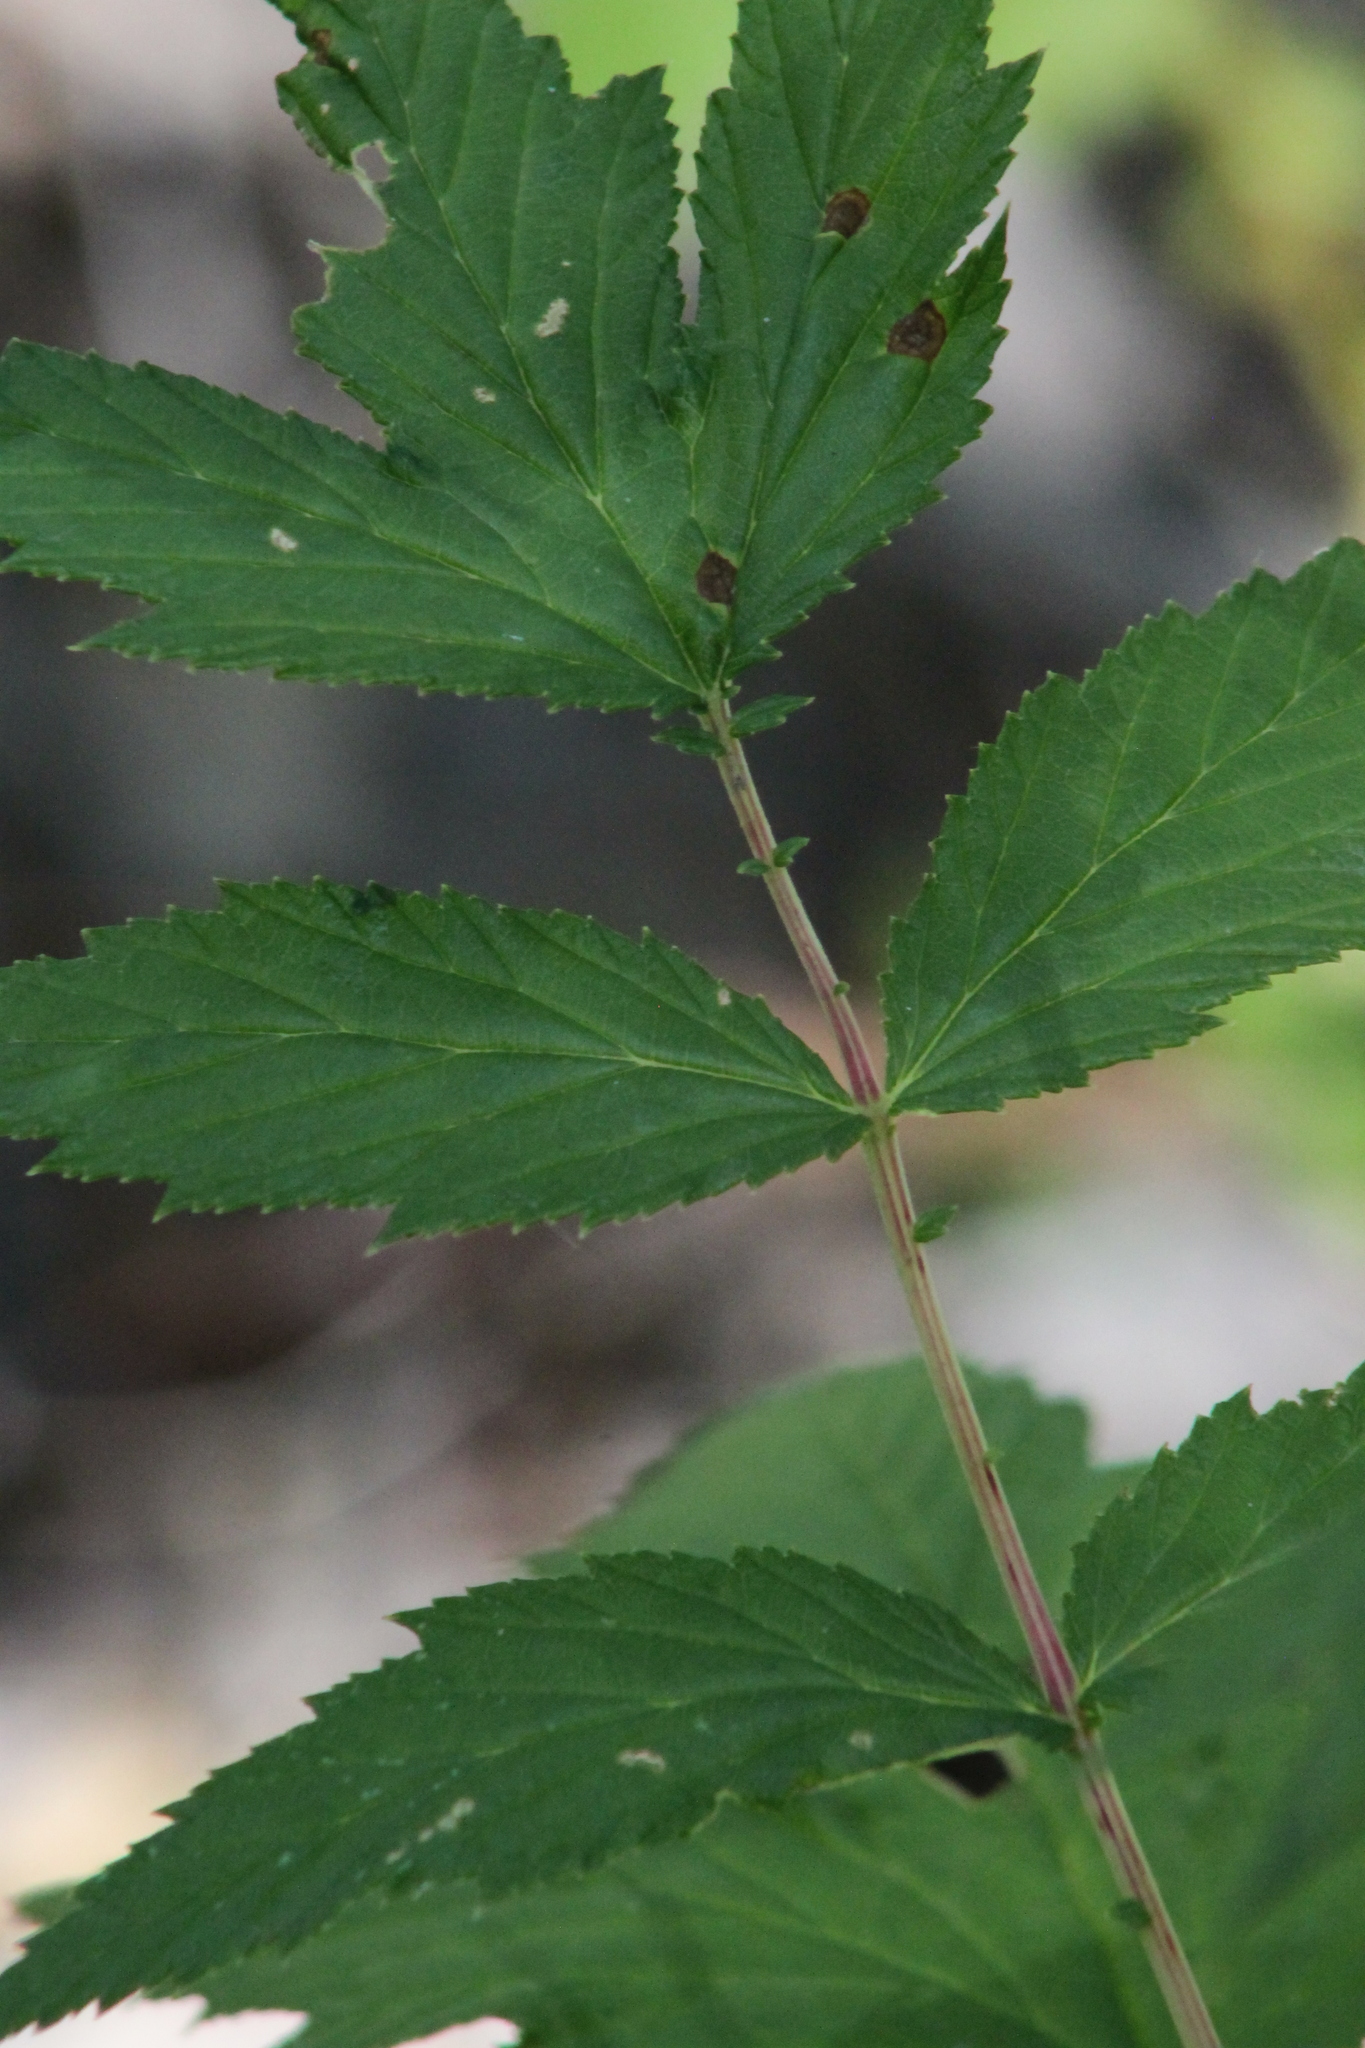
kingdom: Plantae
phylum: Tracheophyta
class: Magnoliopsida
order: Rosales
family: Rosaceae
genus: Filipendula
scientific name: Filipendula ulmaria
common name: Meadowsweet
